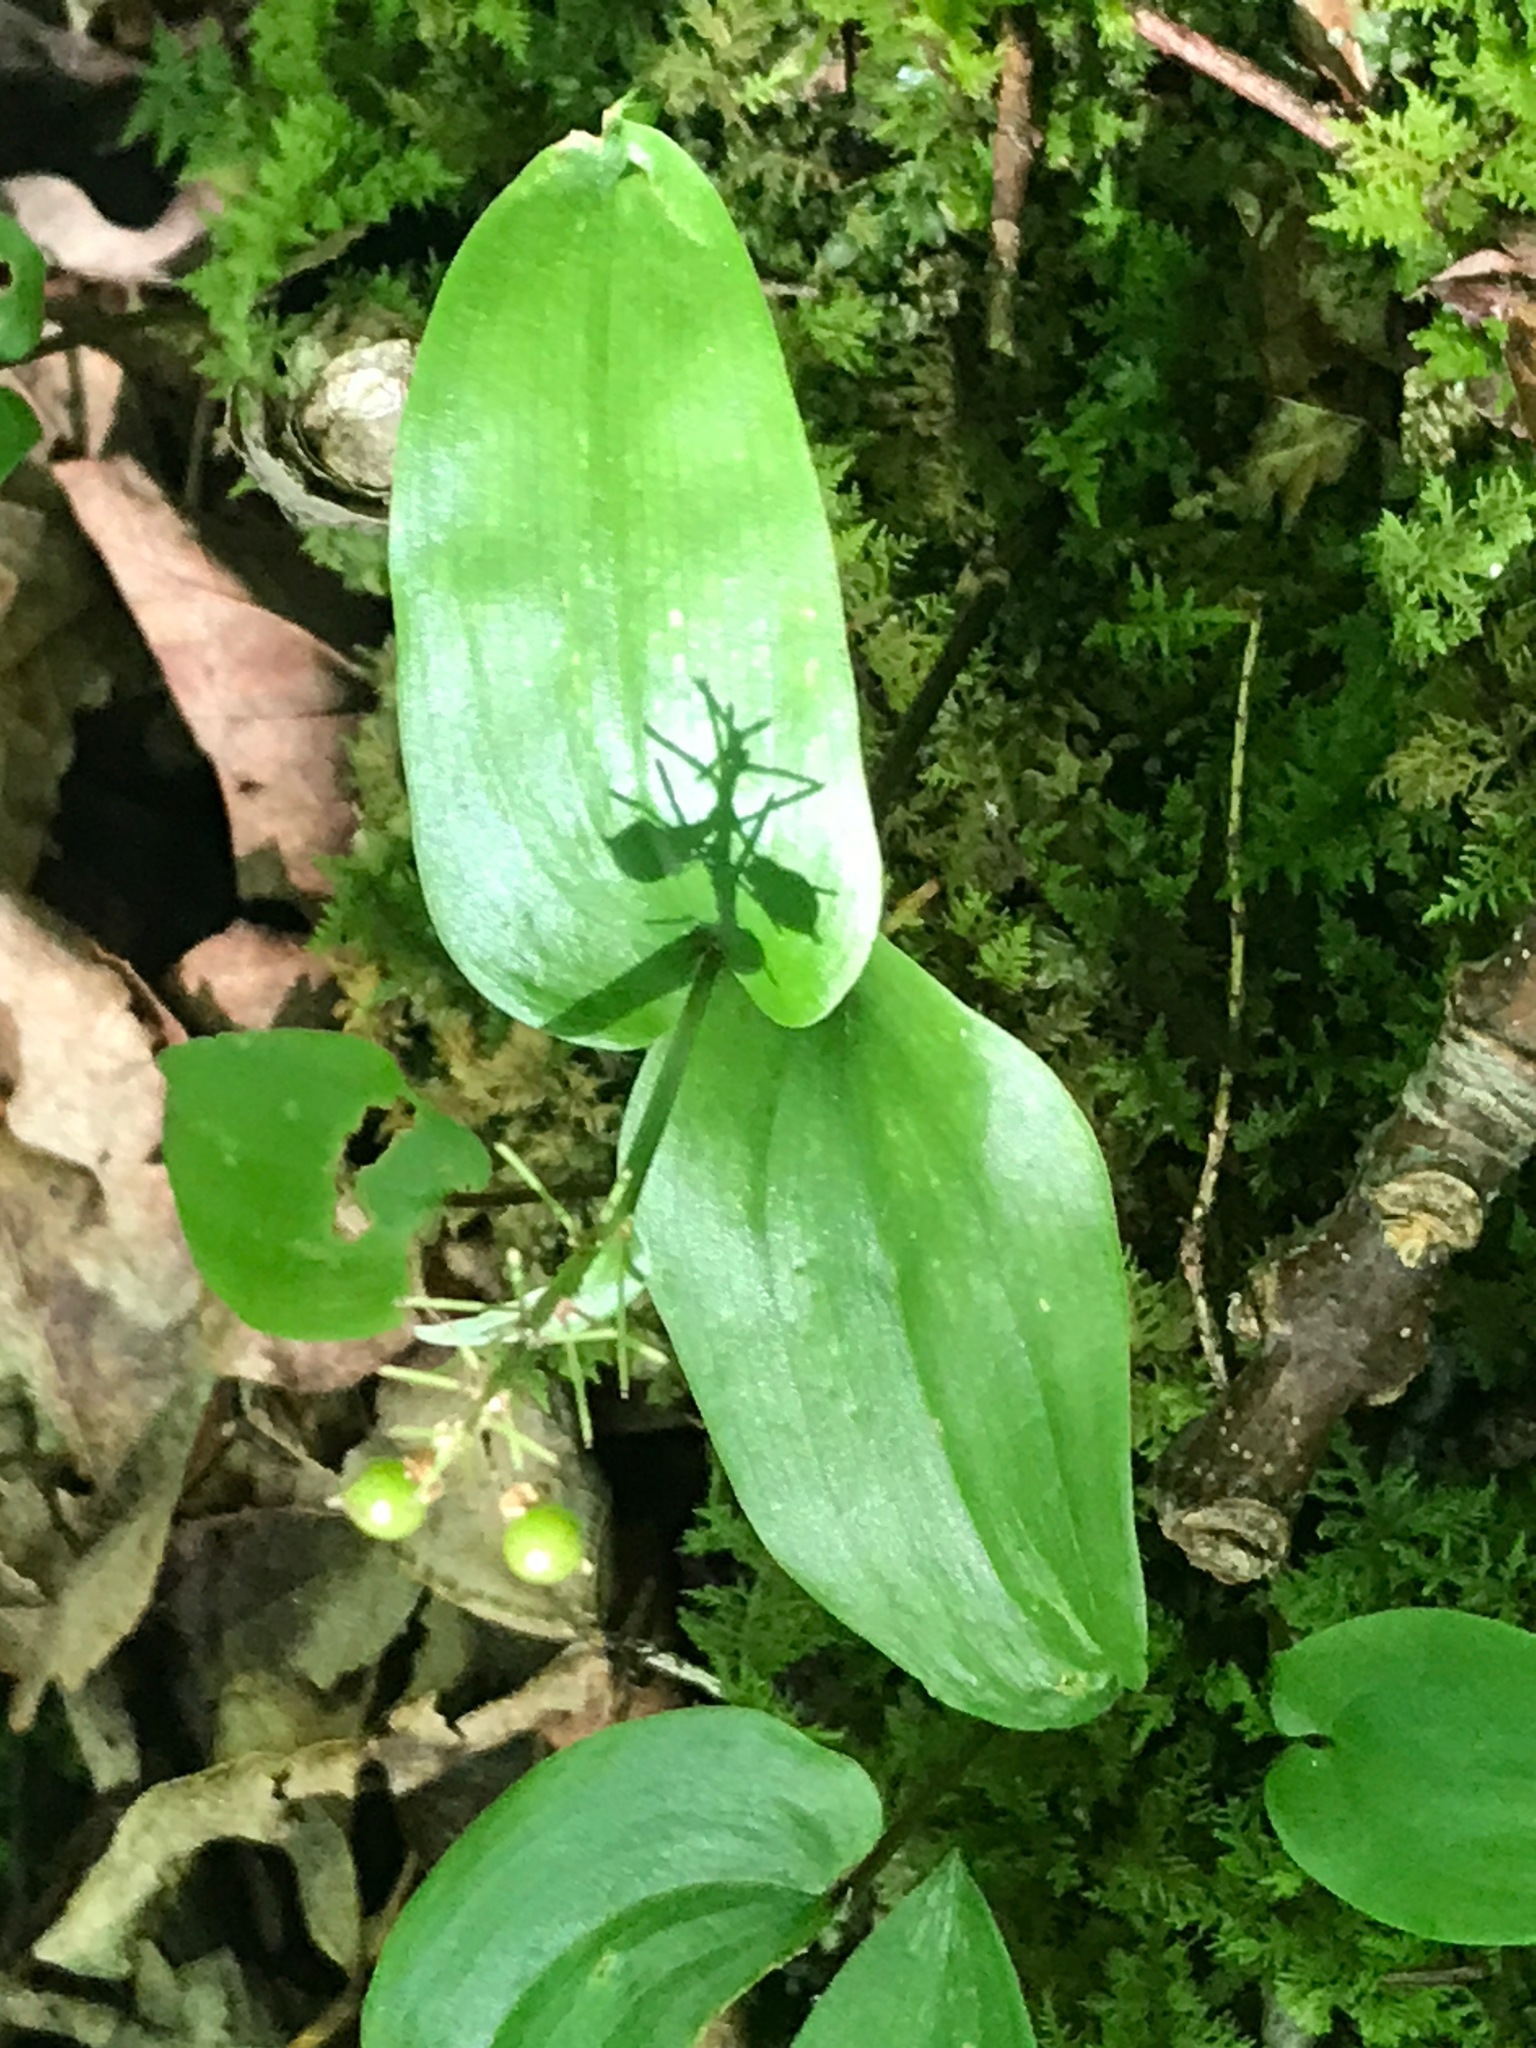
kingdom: Plantae
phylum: Tracheophyta
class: Liliopsida
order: Asparagales
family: Asparagaceae
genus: Maianthemum
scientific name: Maianthemum canadense
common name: False lily-of-the-valley
